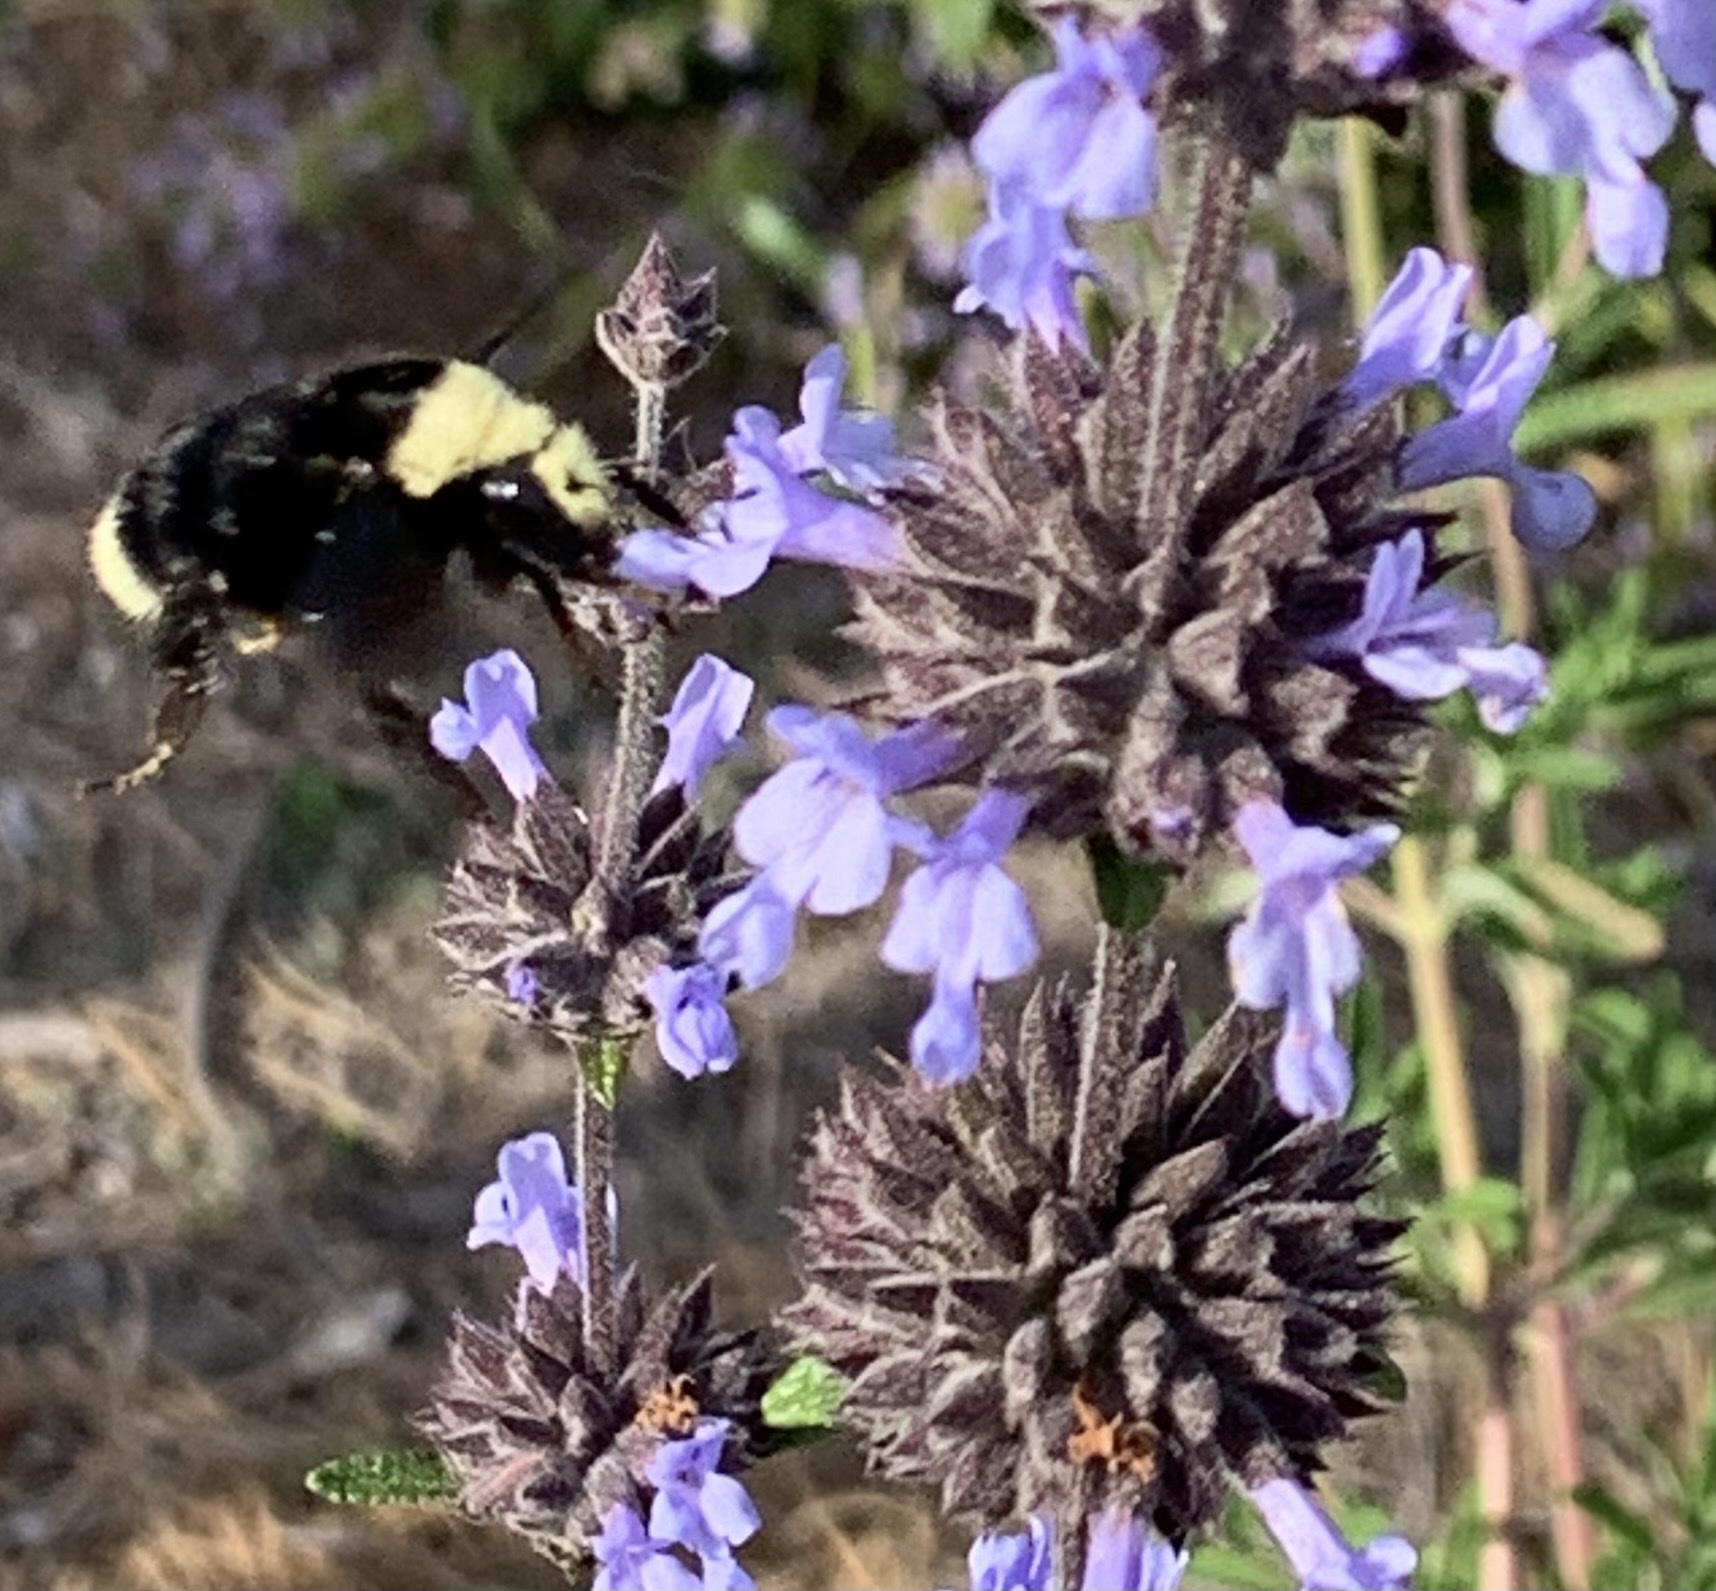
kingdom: Animalia
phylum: Arthropoda
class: Insecta
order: Hymenoptera
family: Apidae
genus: Bombus
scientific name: Bombus vosnesenskii
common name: Vosnesensky bumble bee
